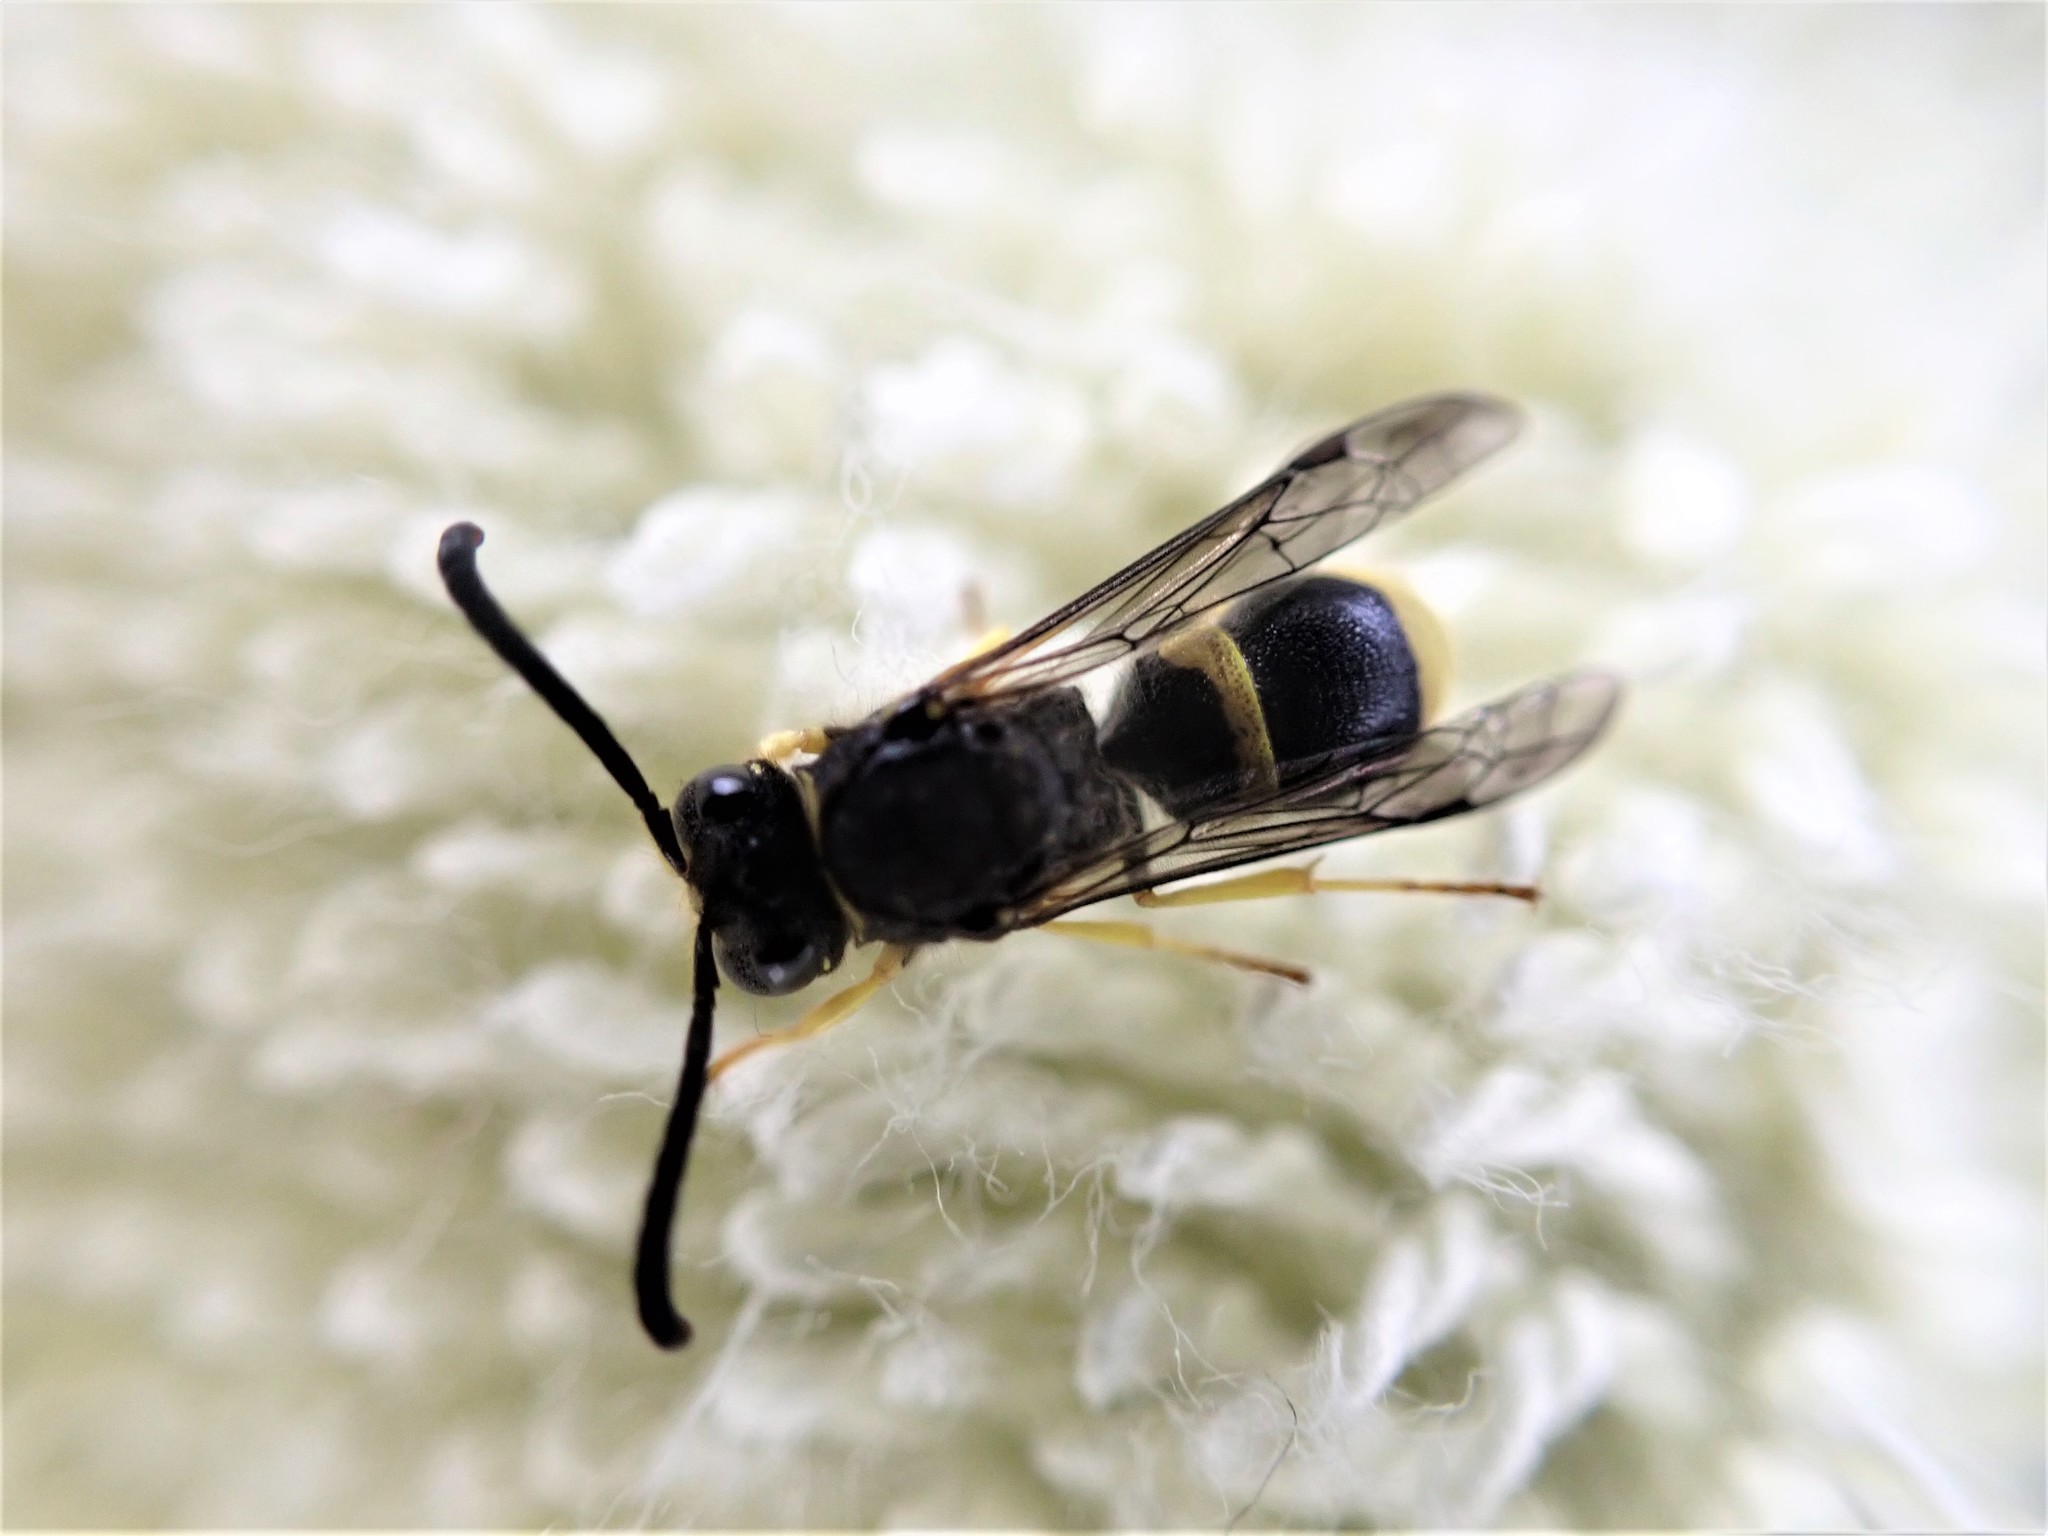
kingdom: Animalia
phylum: Arthropoda
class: Insecta
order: Hymenoptera
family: Vespidae
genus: Ancistrocerus
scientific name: Ancistrocerus gazella
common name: European tube wasp
